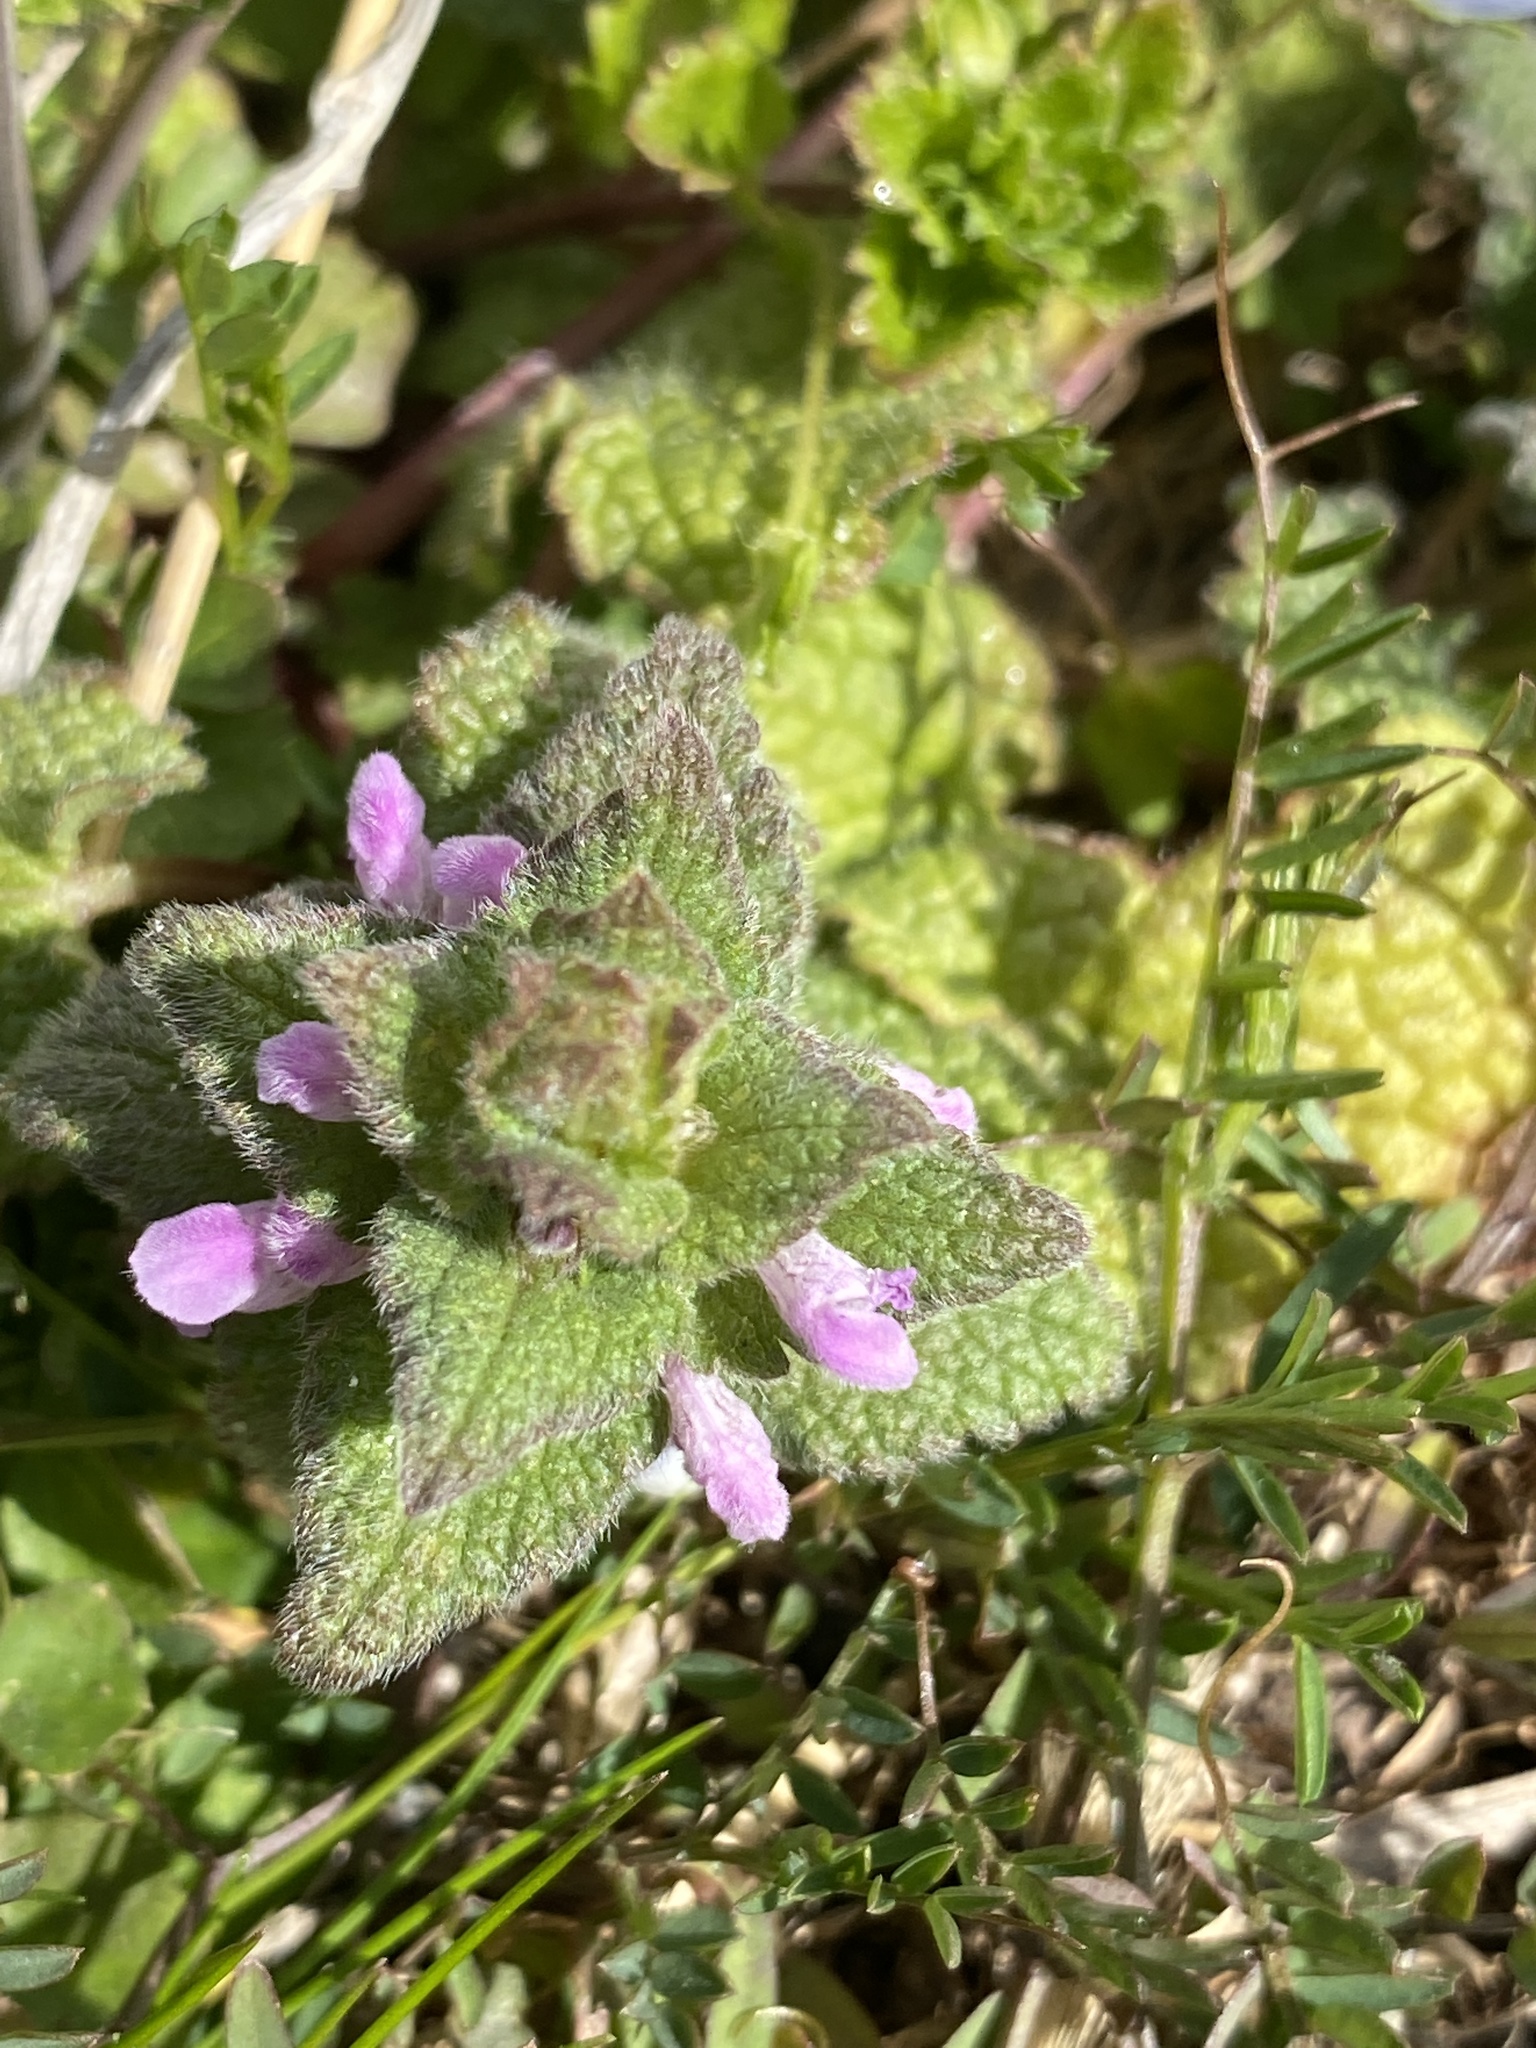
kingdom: Plantae
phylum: Tracheophyta
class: Magnoliopsida
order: Lamiales
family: Lamiaceae
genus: Lamium
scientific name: Lamium purpureum
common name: Red dead-nettle
